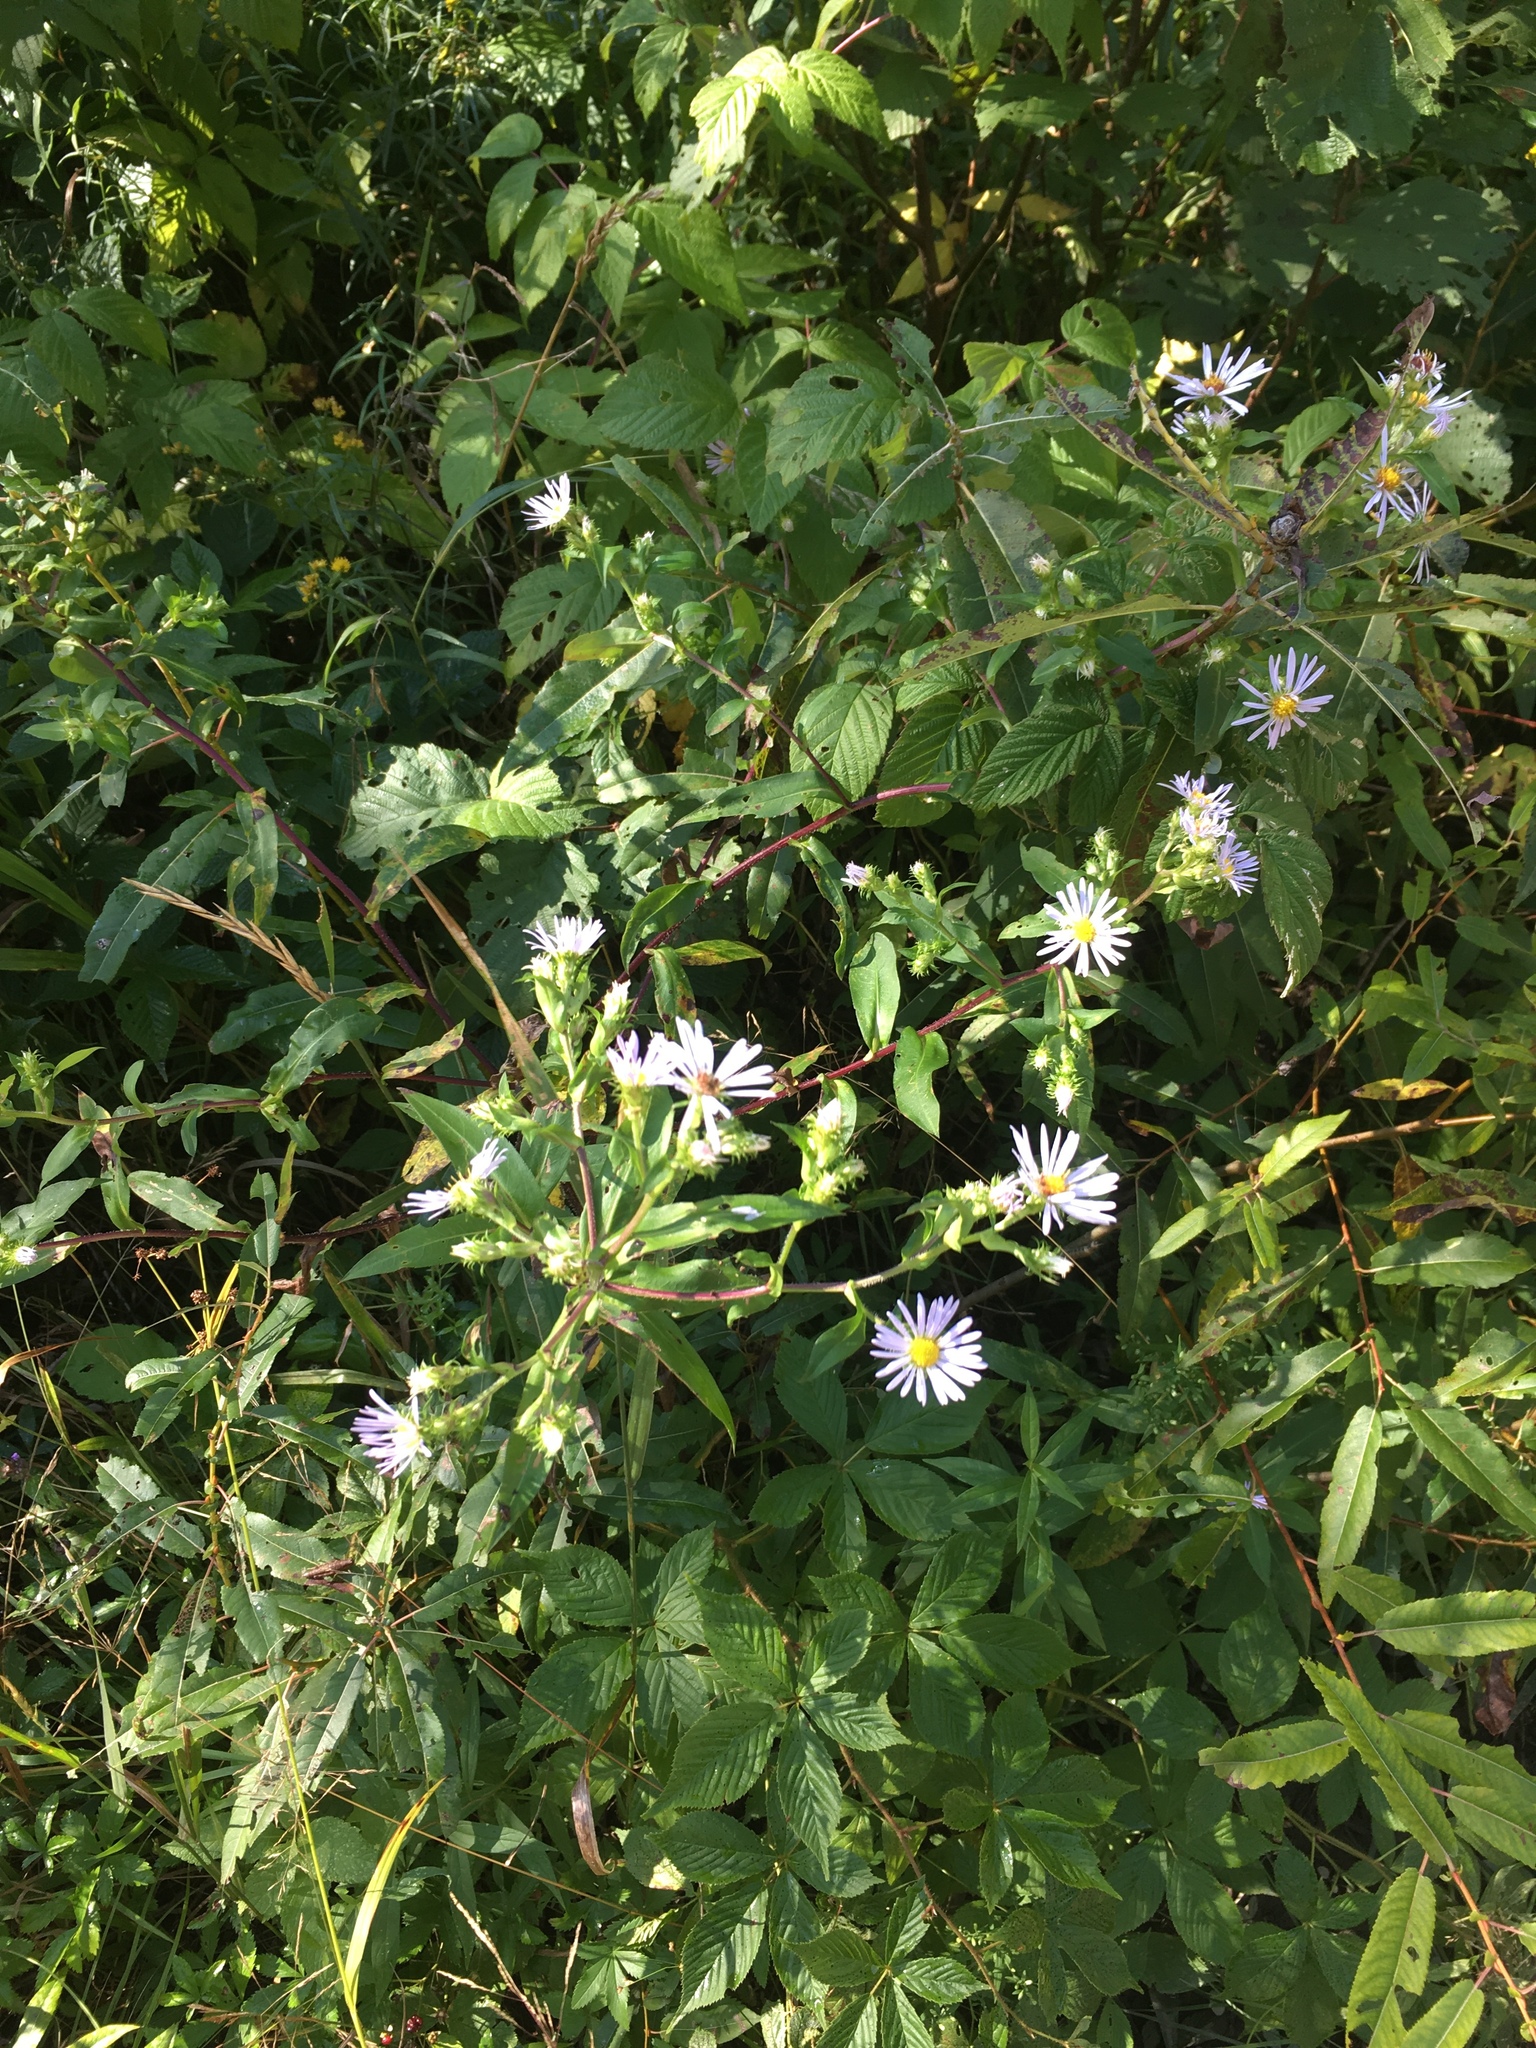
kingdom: Plantae
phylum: Tracheophyta
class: Magnoliopsida
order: Asterales
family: Asteraceae
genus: Symphyotrichum
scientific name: Symphyotrichum puniceum
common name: Bog aster
